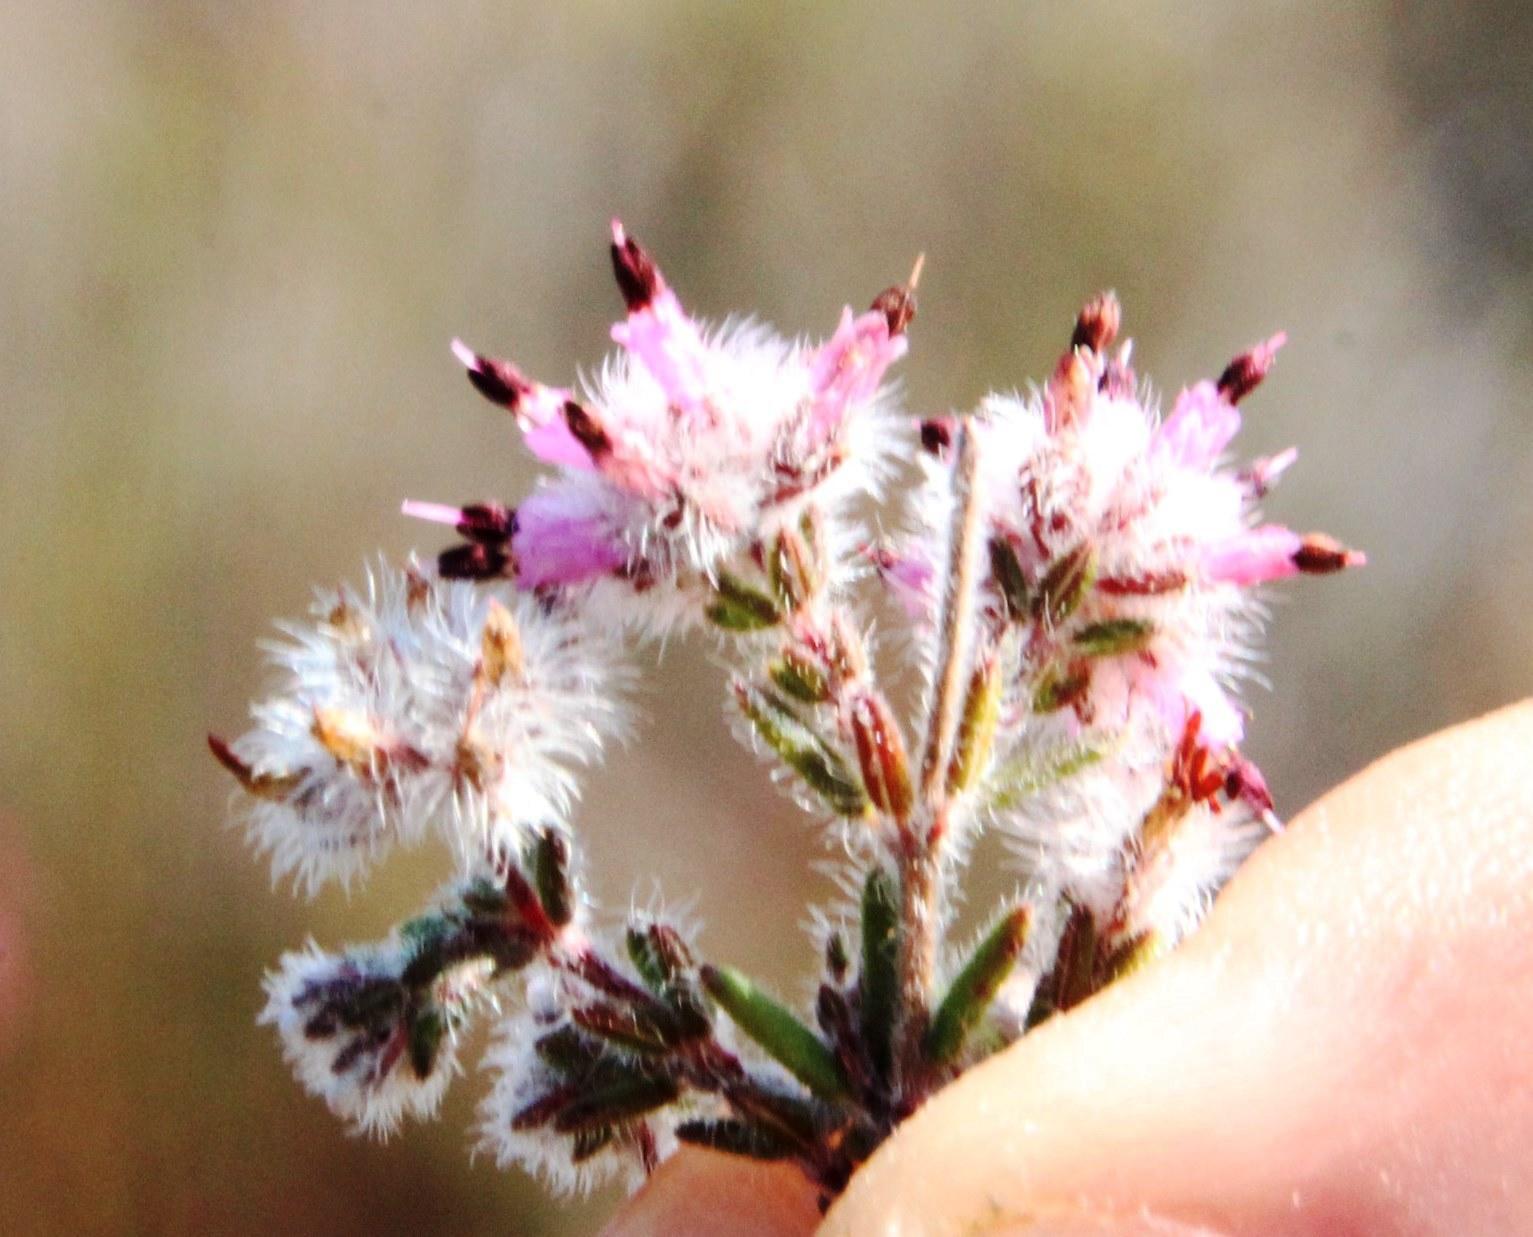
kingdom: Plantae
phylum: Tracheophyta
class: Magnoliopsida
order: Ericales
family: Ericaceae
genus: Erica
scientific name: Erica eriocephala
